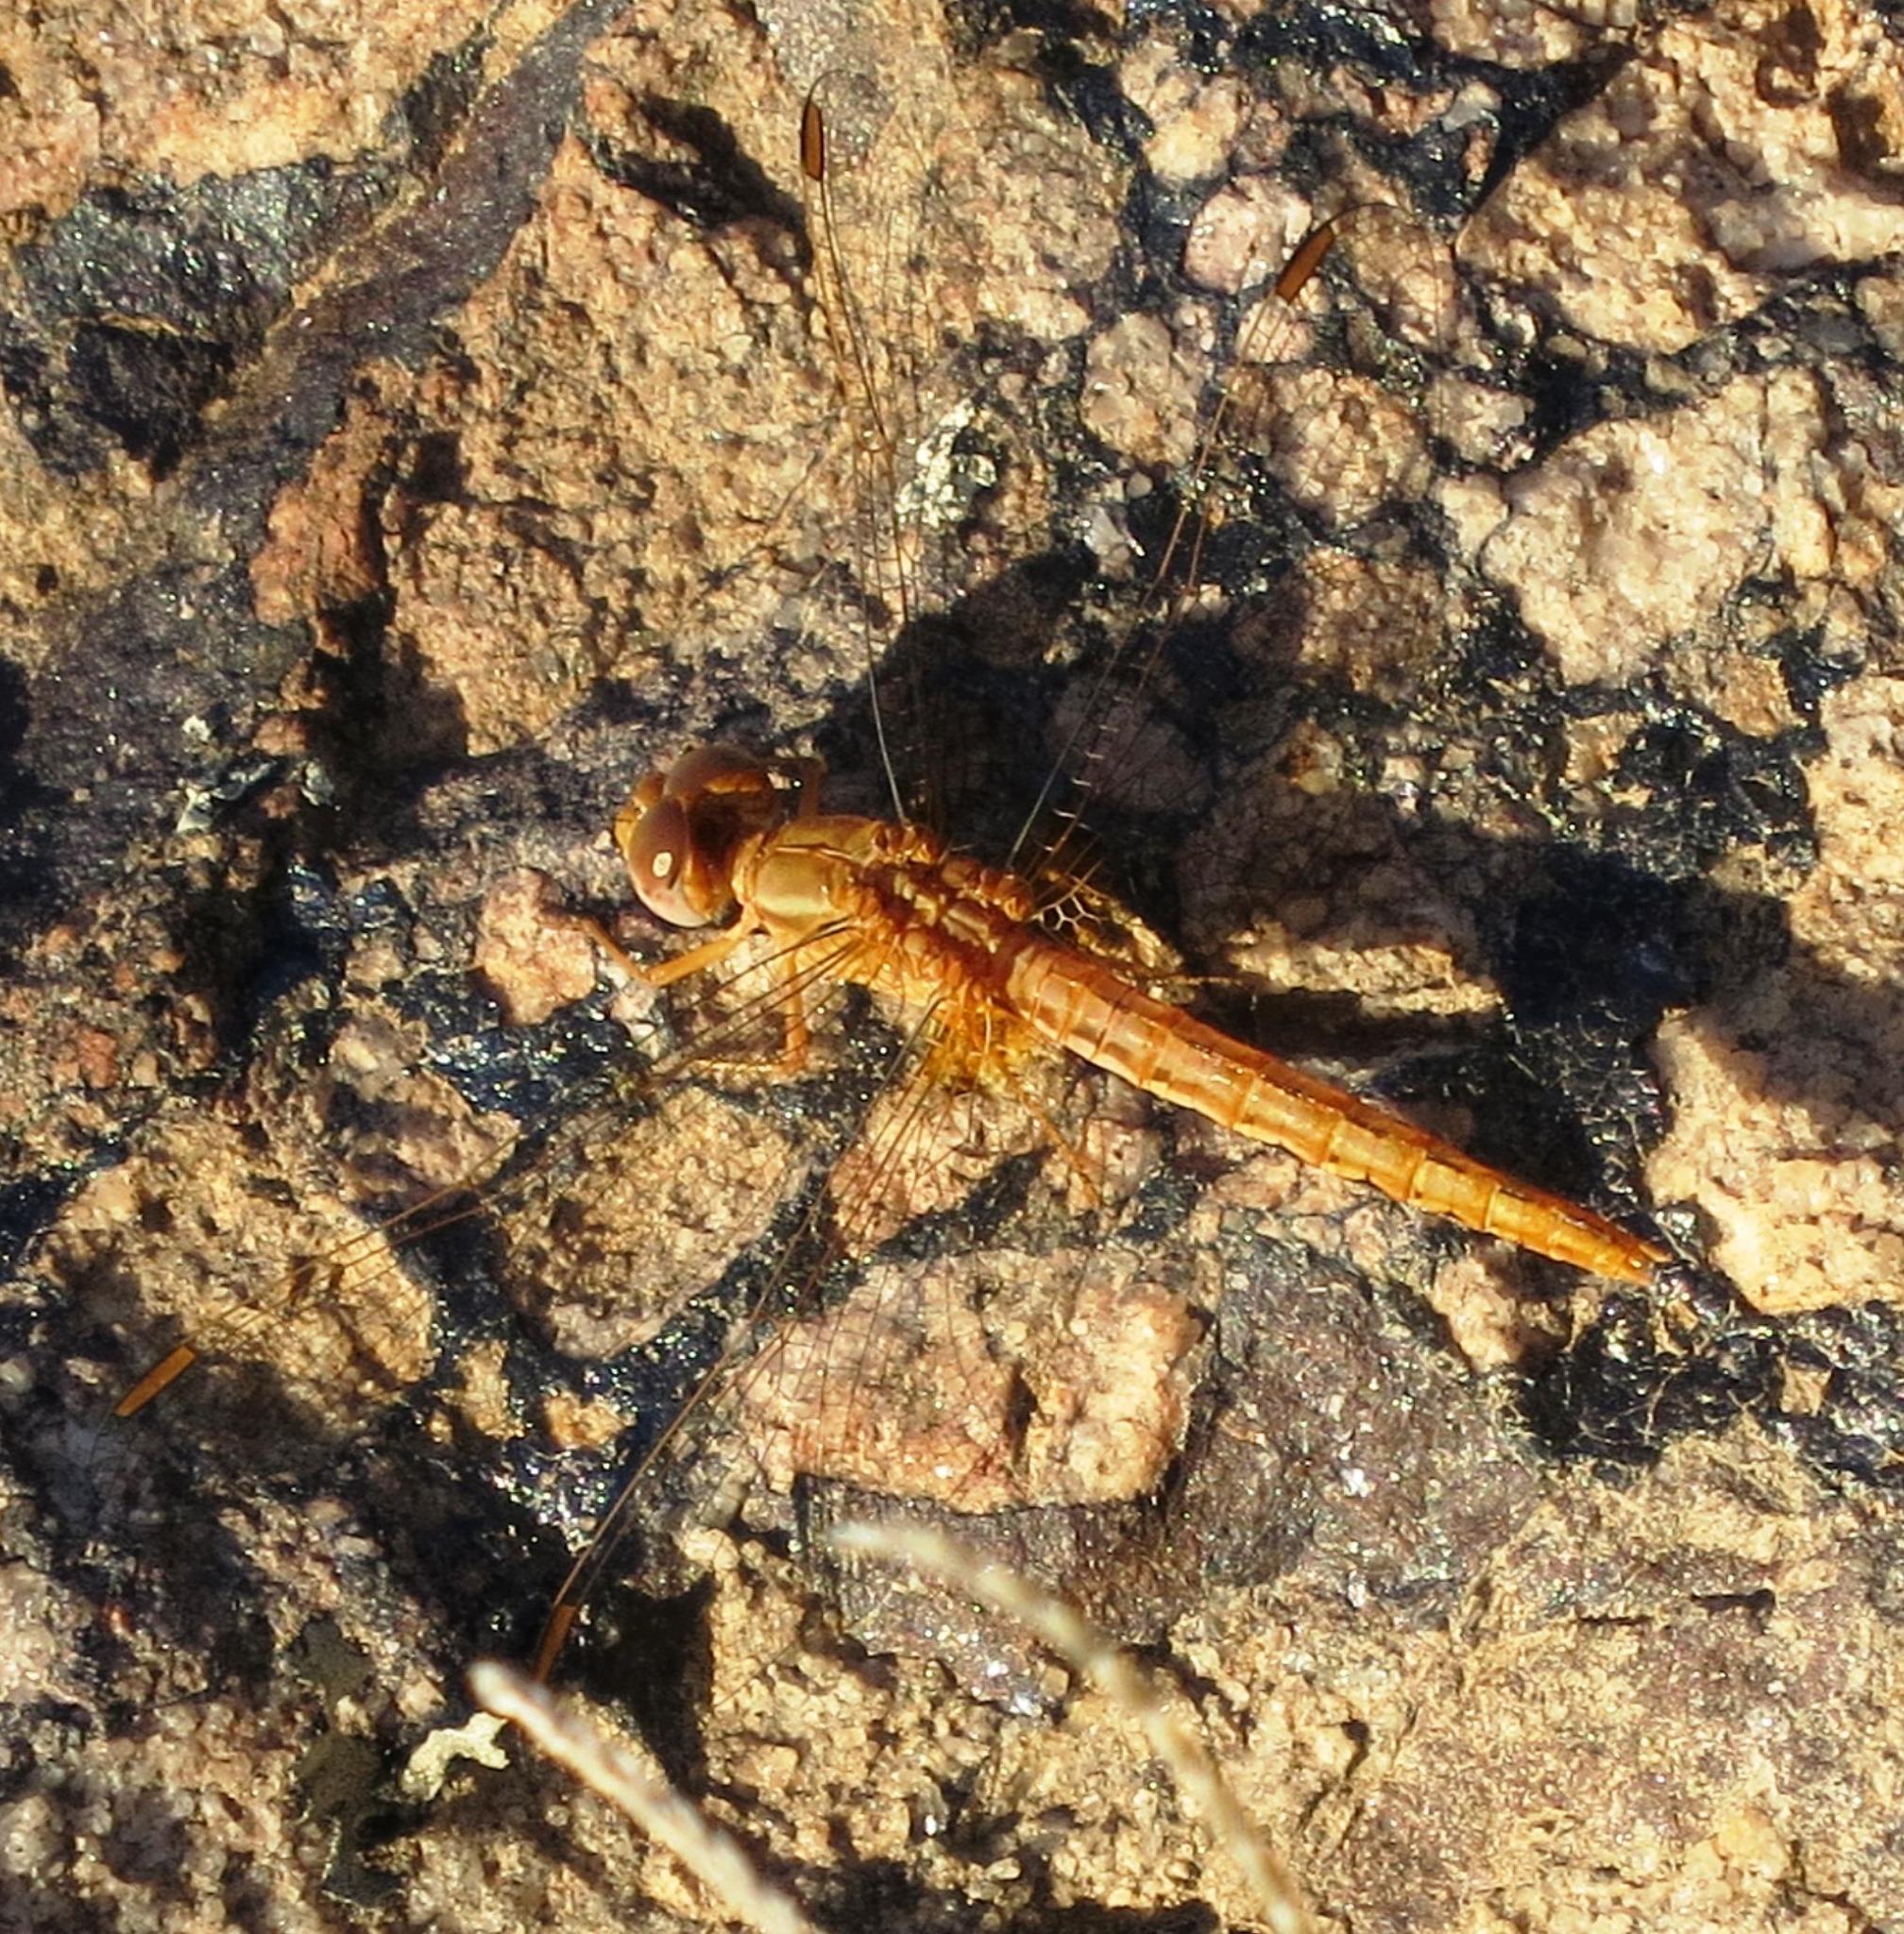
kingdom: Animalia
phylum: Arthropoda
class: Insecta
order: Odonata
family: Libellulidae
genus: Crocothemis
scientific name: Crocothemis sanguinolenta
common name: Little scarlet
